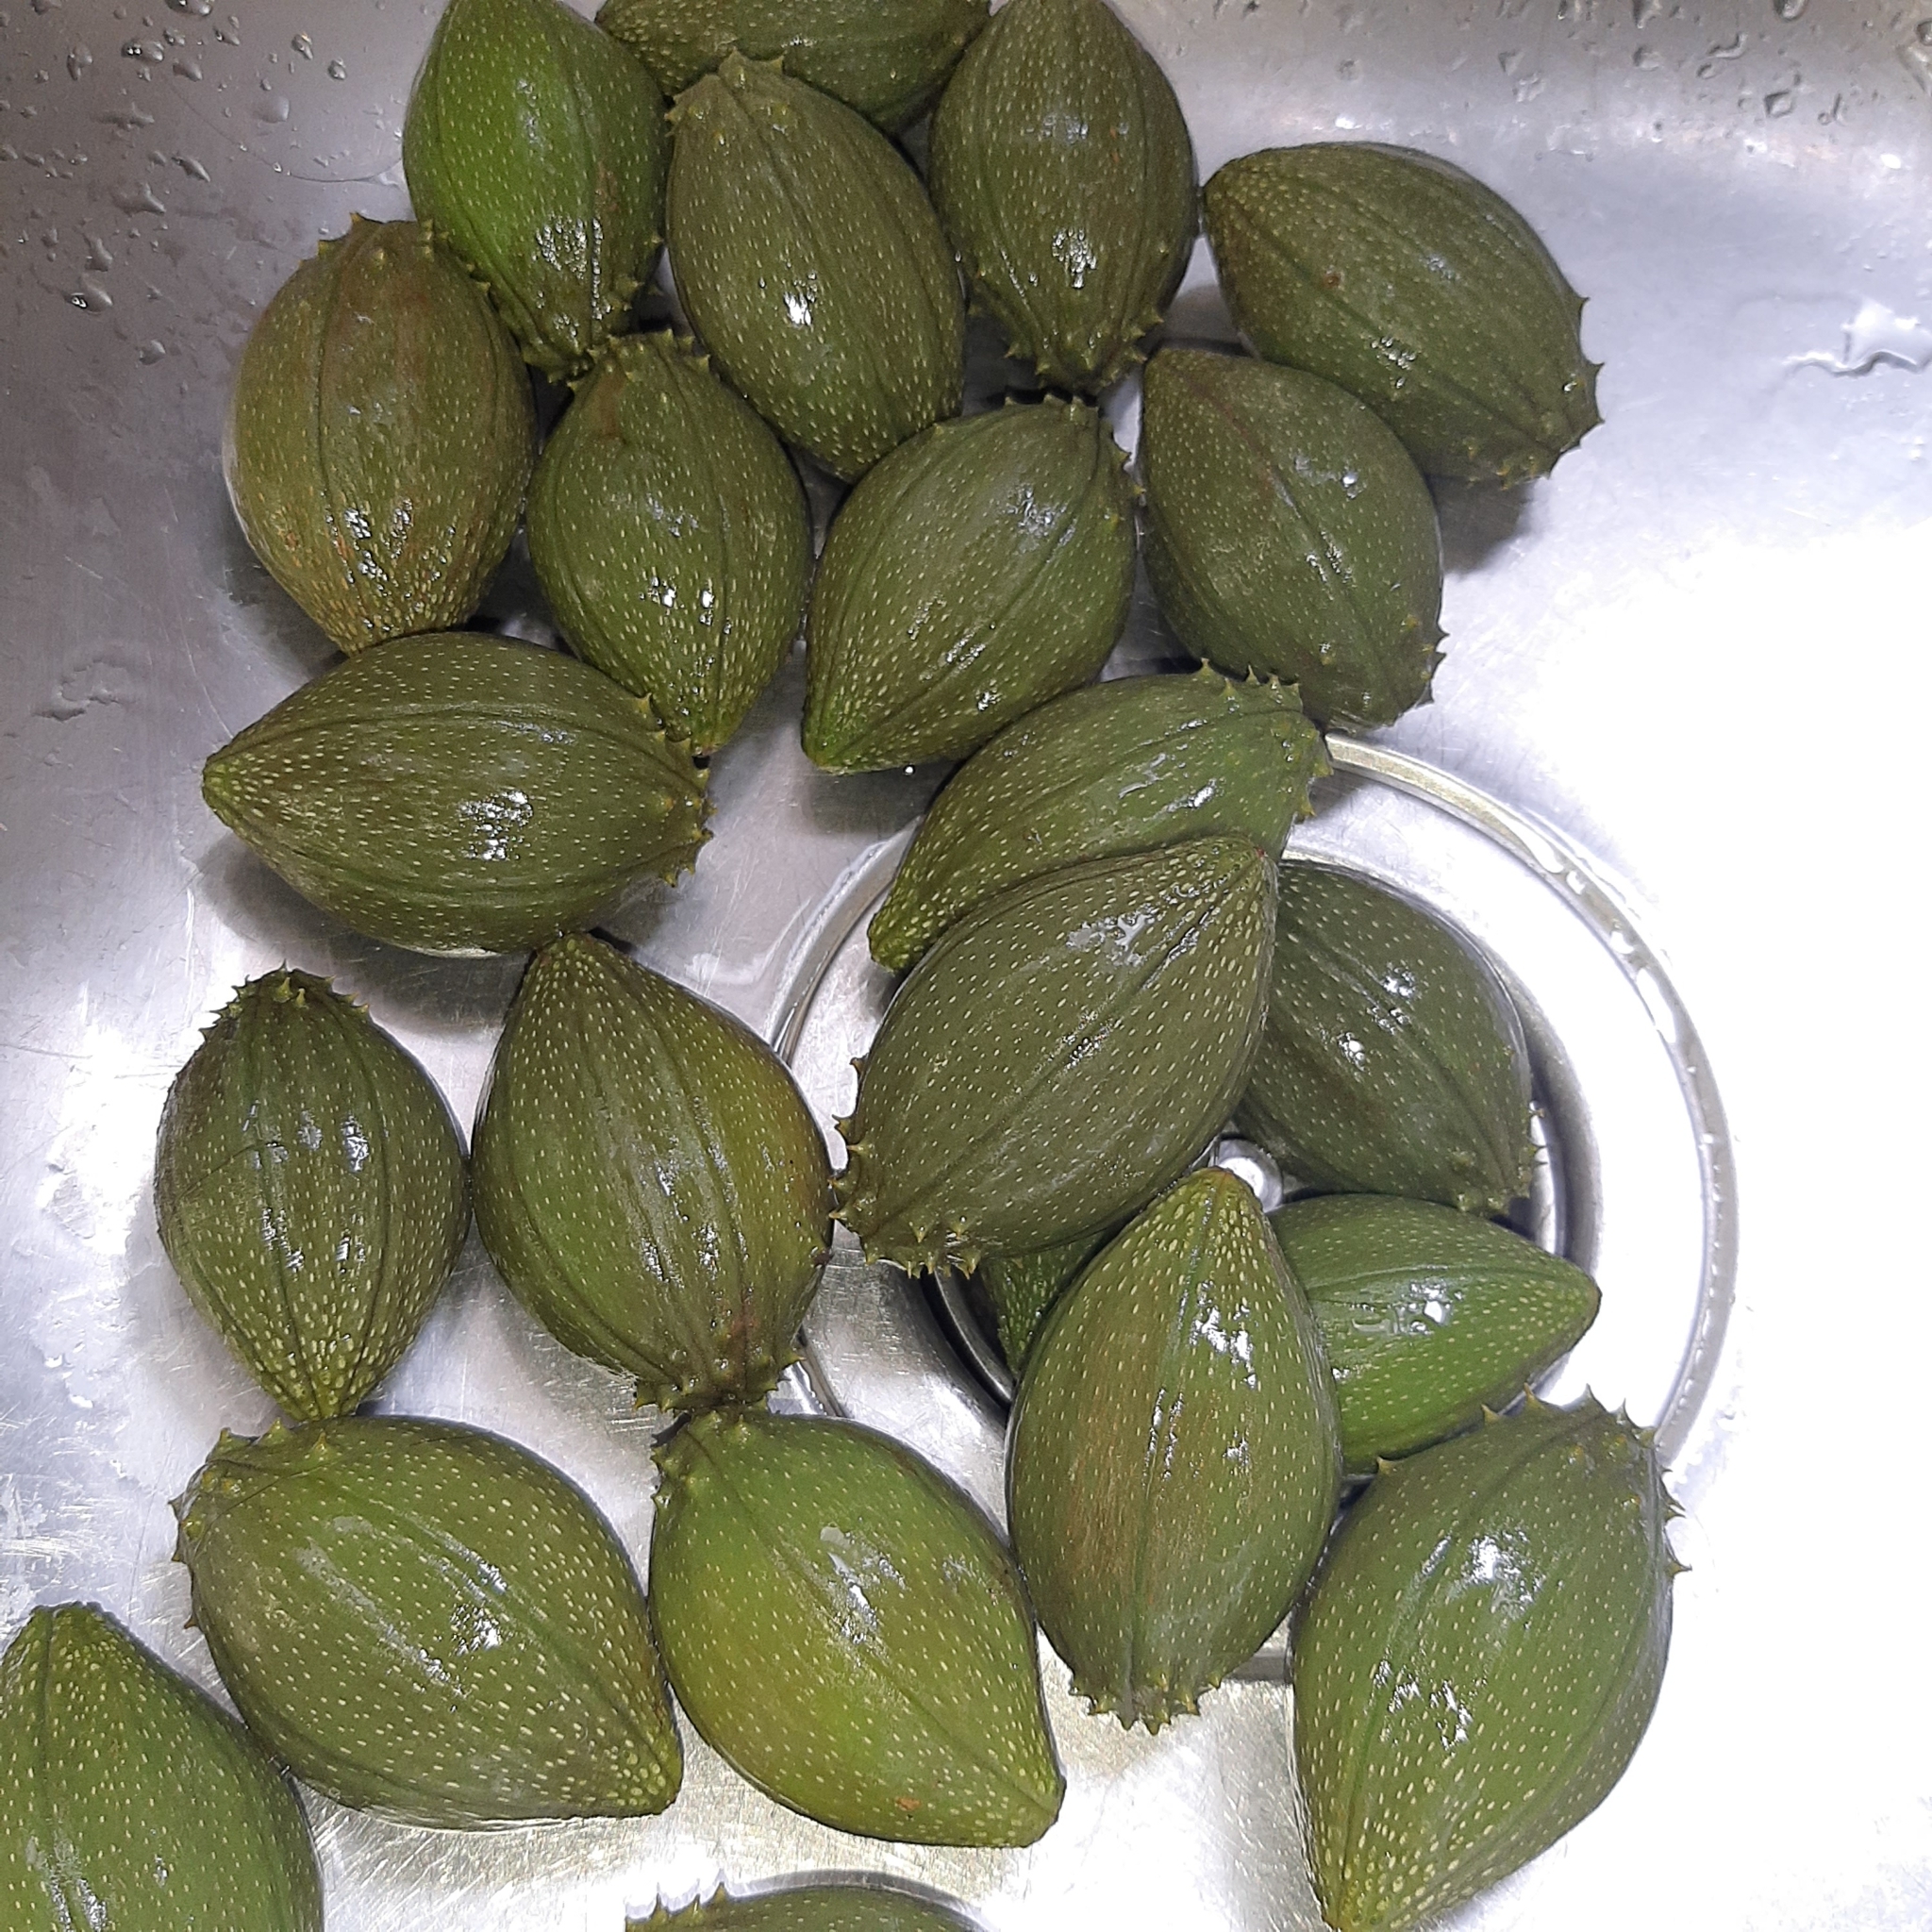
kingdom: Plantae
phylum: Tracheophyta
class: Magnoliopsida
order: Cucurbitales
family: Cucurbitaceae
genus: Frantzia
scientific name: Frantzia tacaco
